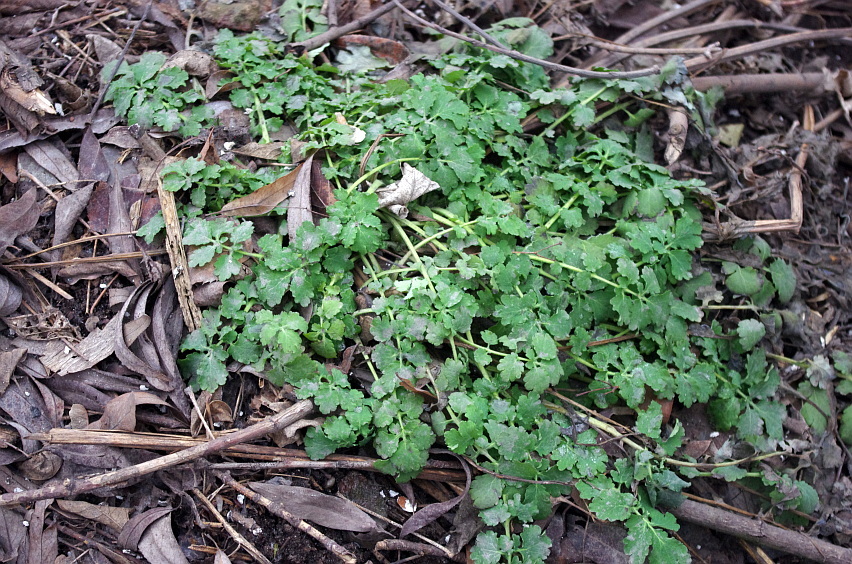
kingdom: Plantae
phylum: Tracheophyta
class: Magnoliopsida
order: Ranunculales
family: Papaveraceae
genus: Chelidonium
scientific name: Chelidonium majus
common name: Greater celandine
